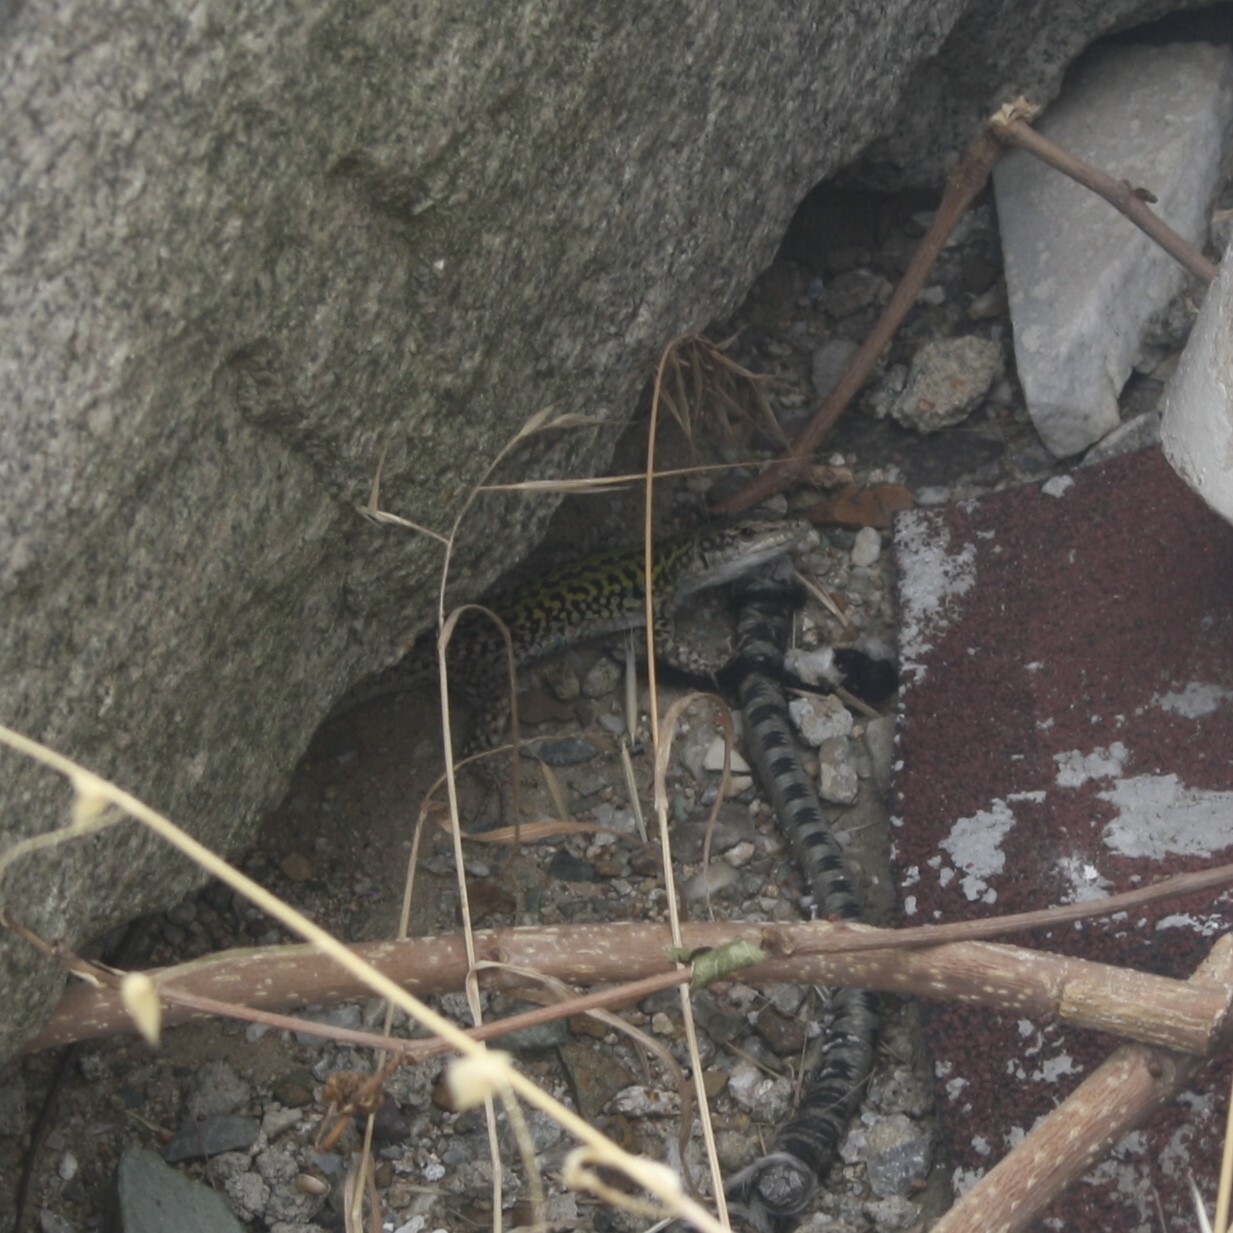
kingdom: Animalia
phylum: Chordata
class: Squamata
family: Lacertidae
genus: Podarcis
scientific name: Podarcis siculus
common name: Italian wall lizard
